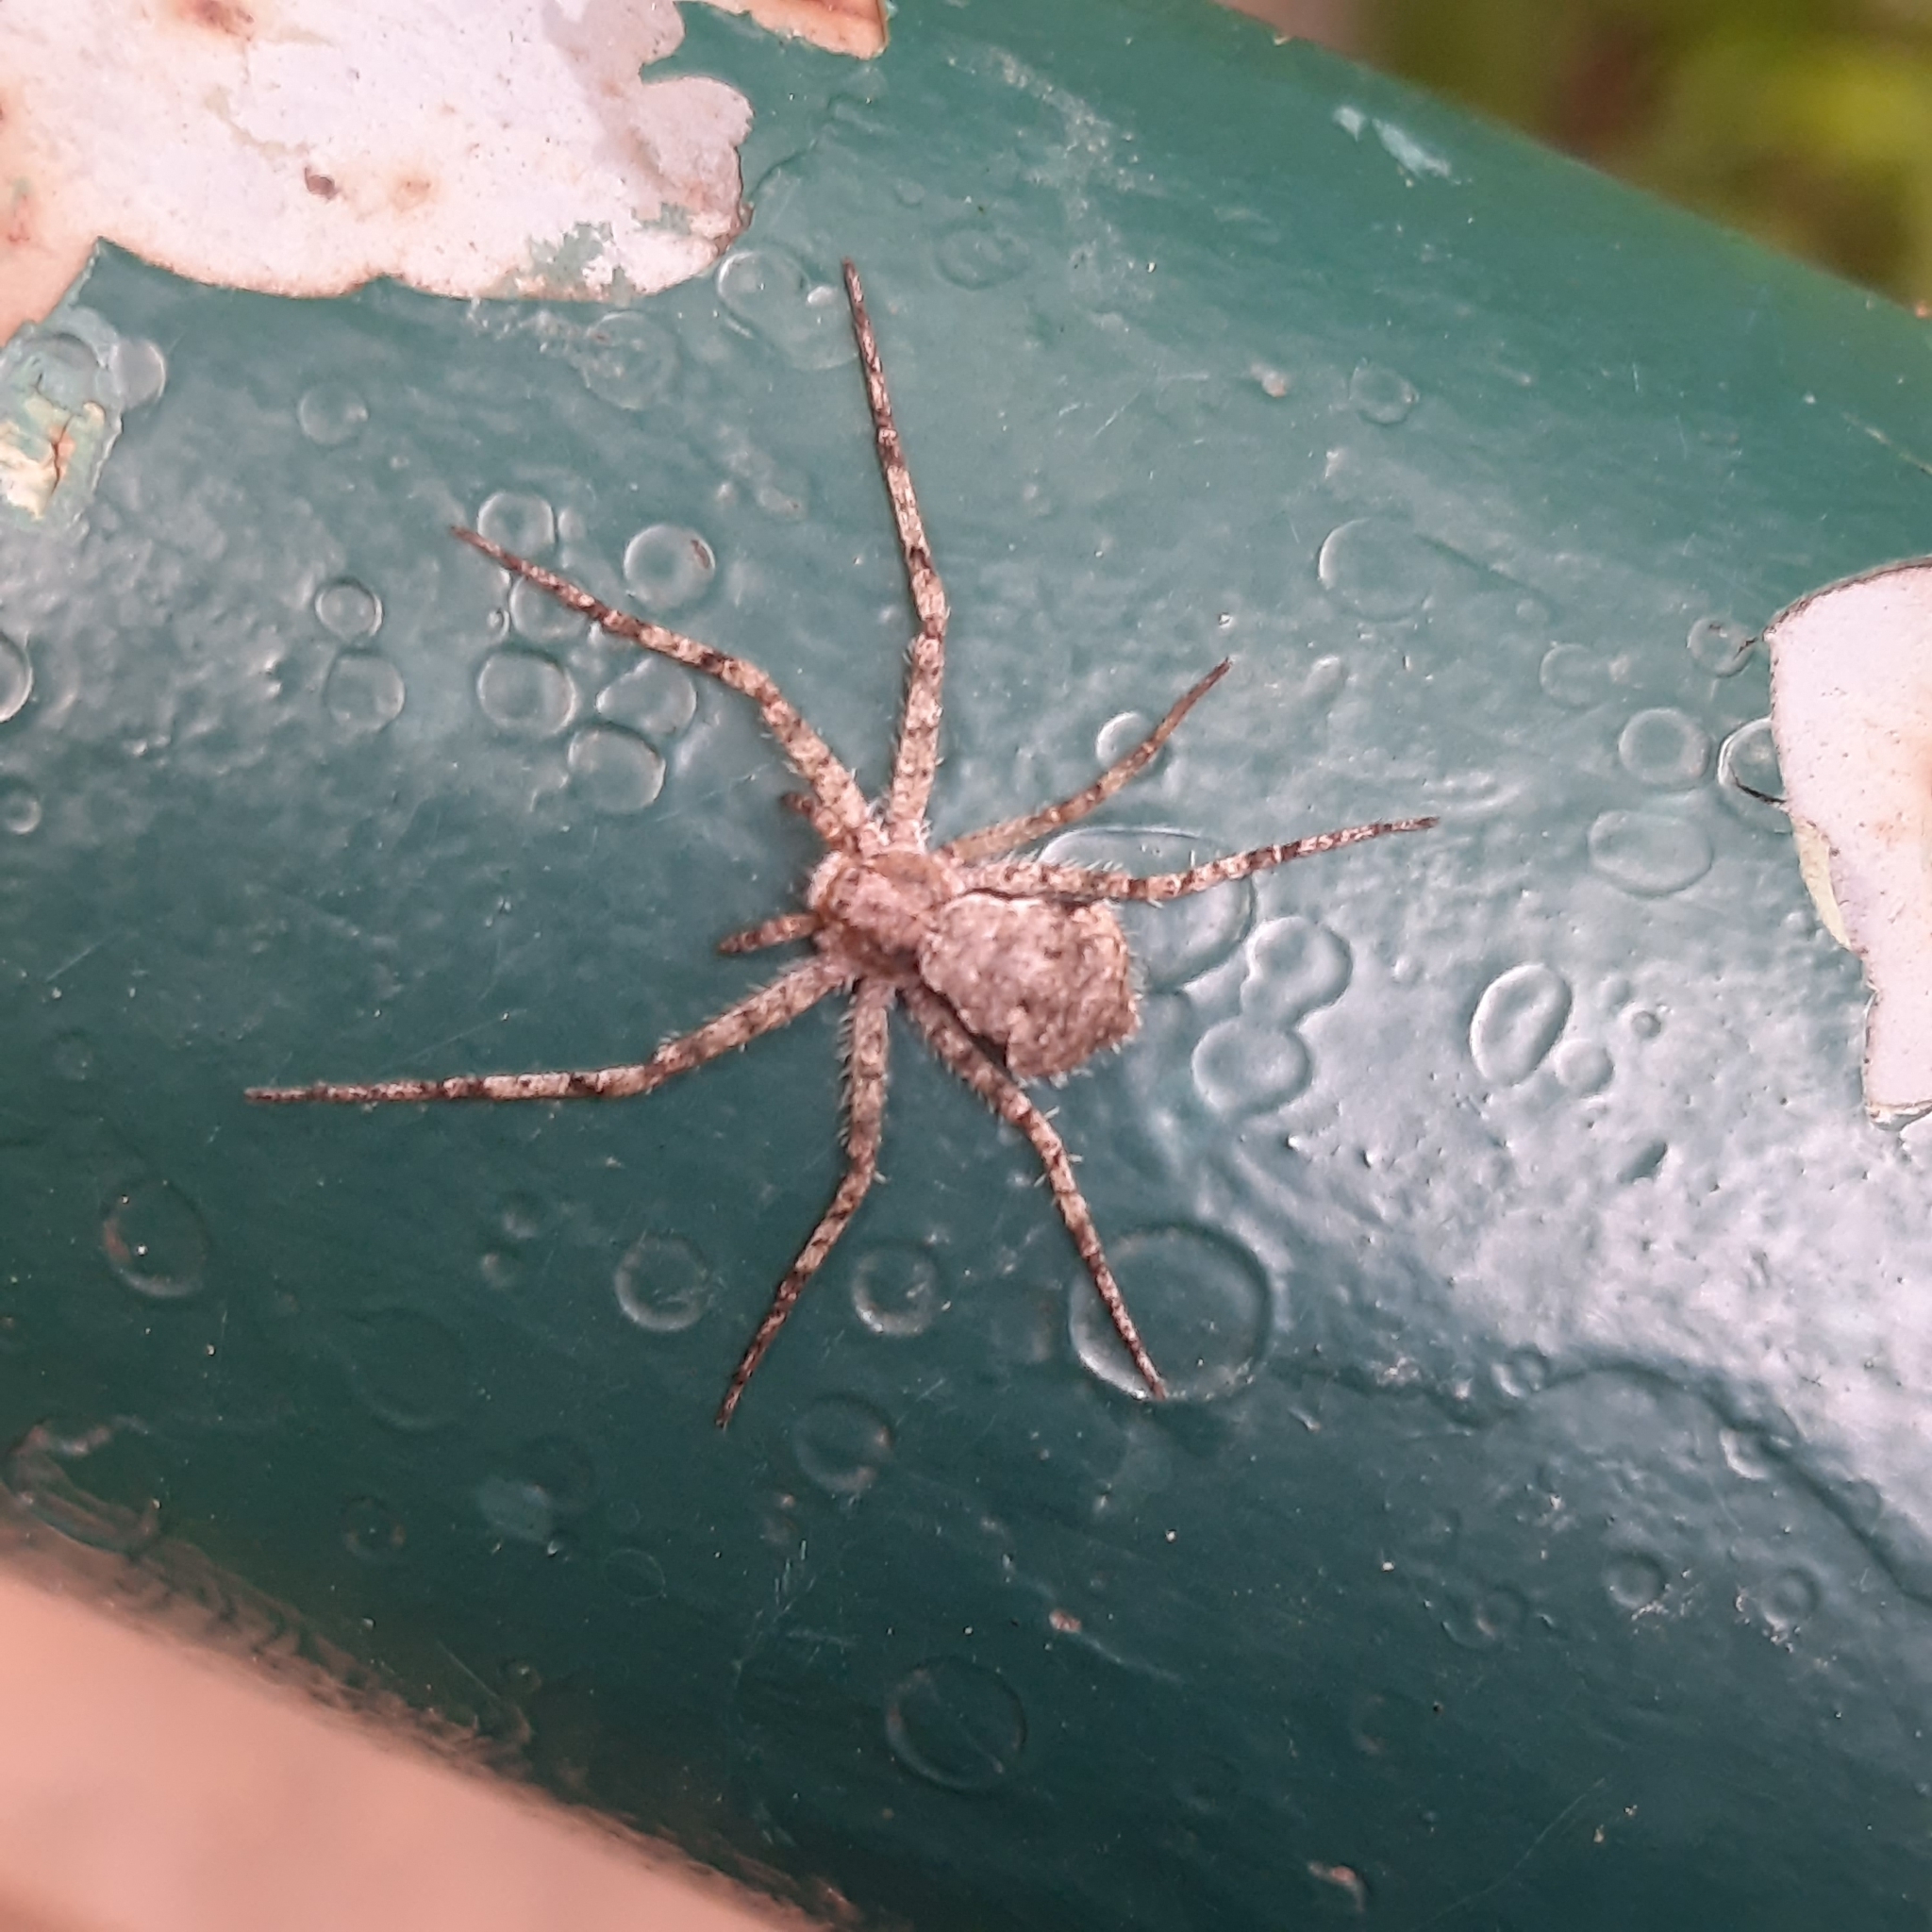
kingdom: Animalia
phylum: Arthropoda
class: Arachnida
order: Araneae
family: Philodromidae
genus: Philodromus
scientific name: Philodromus margaritatus
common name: Lichen running-spider
